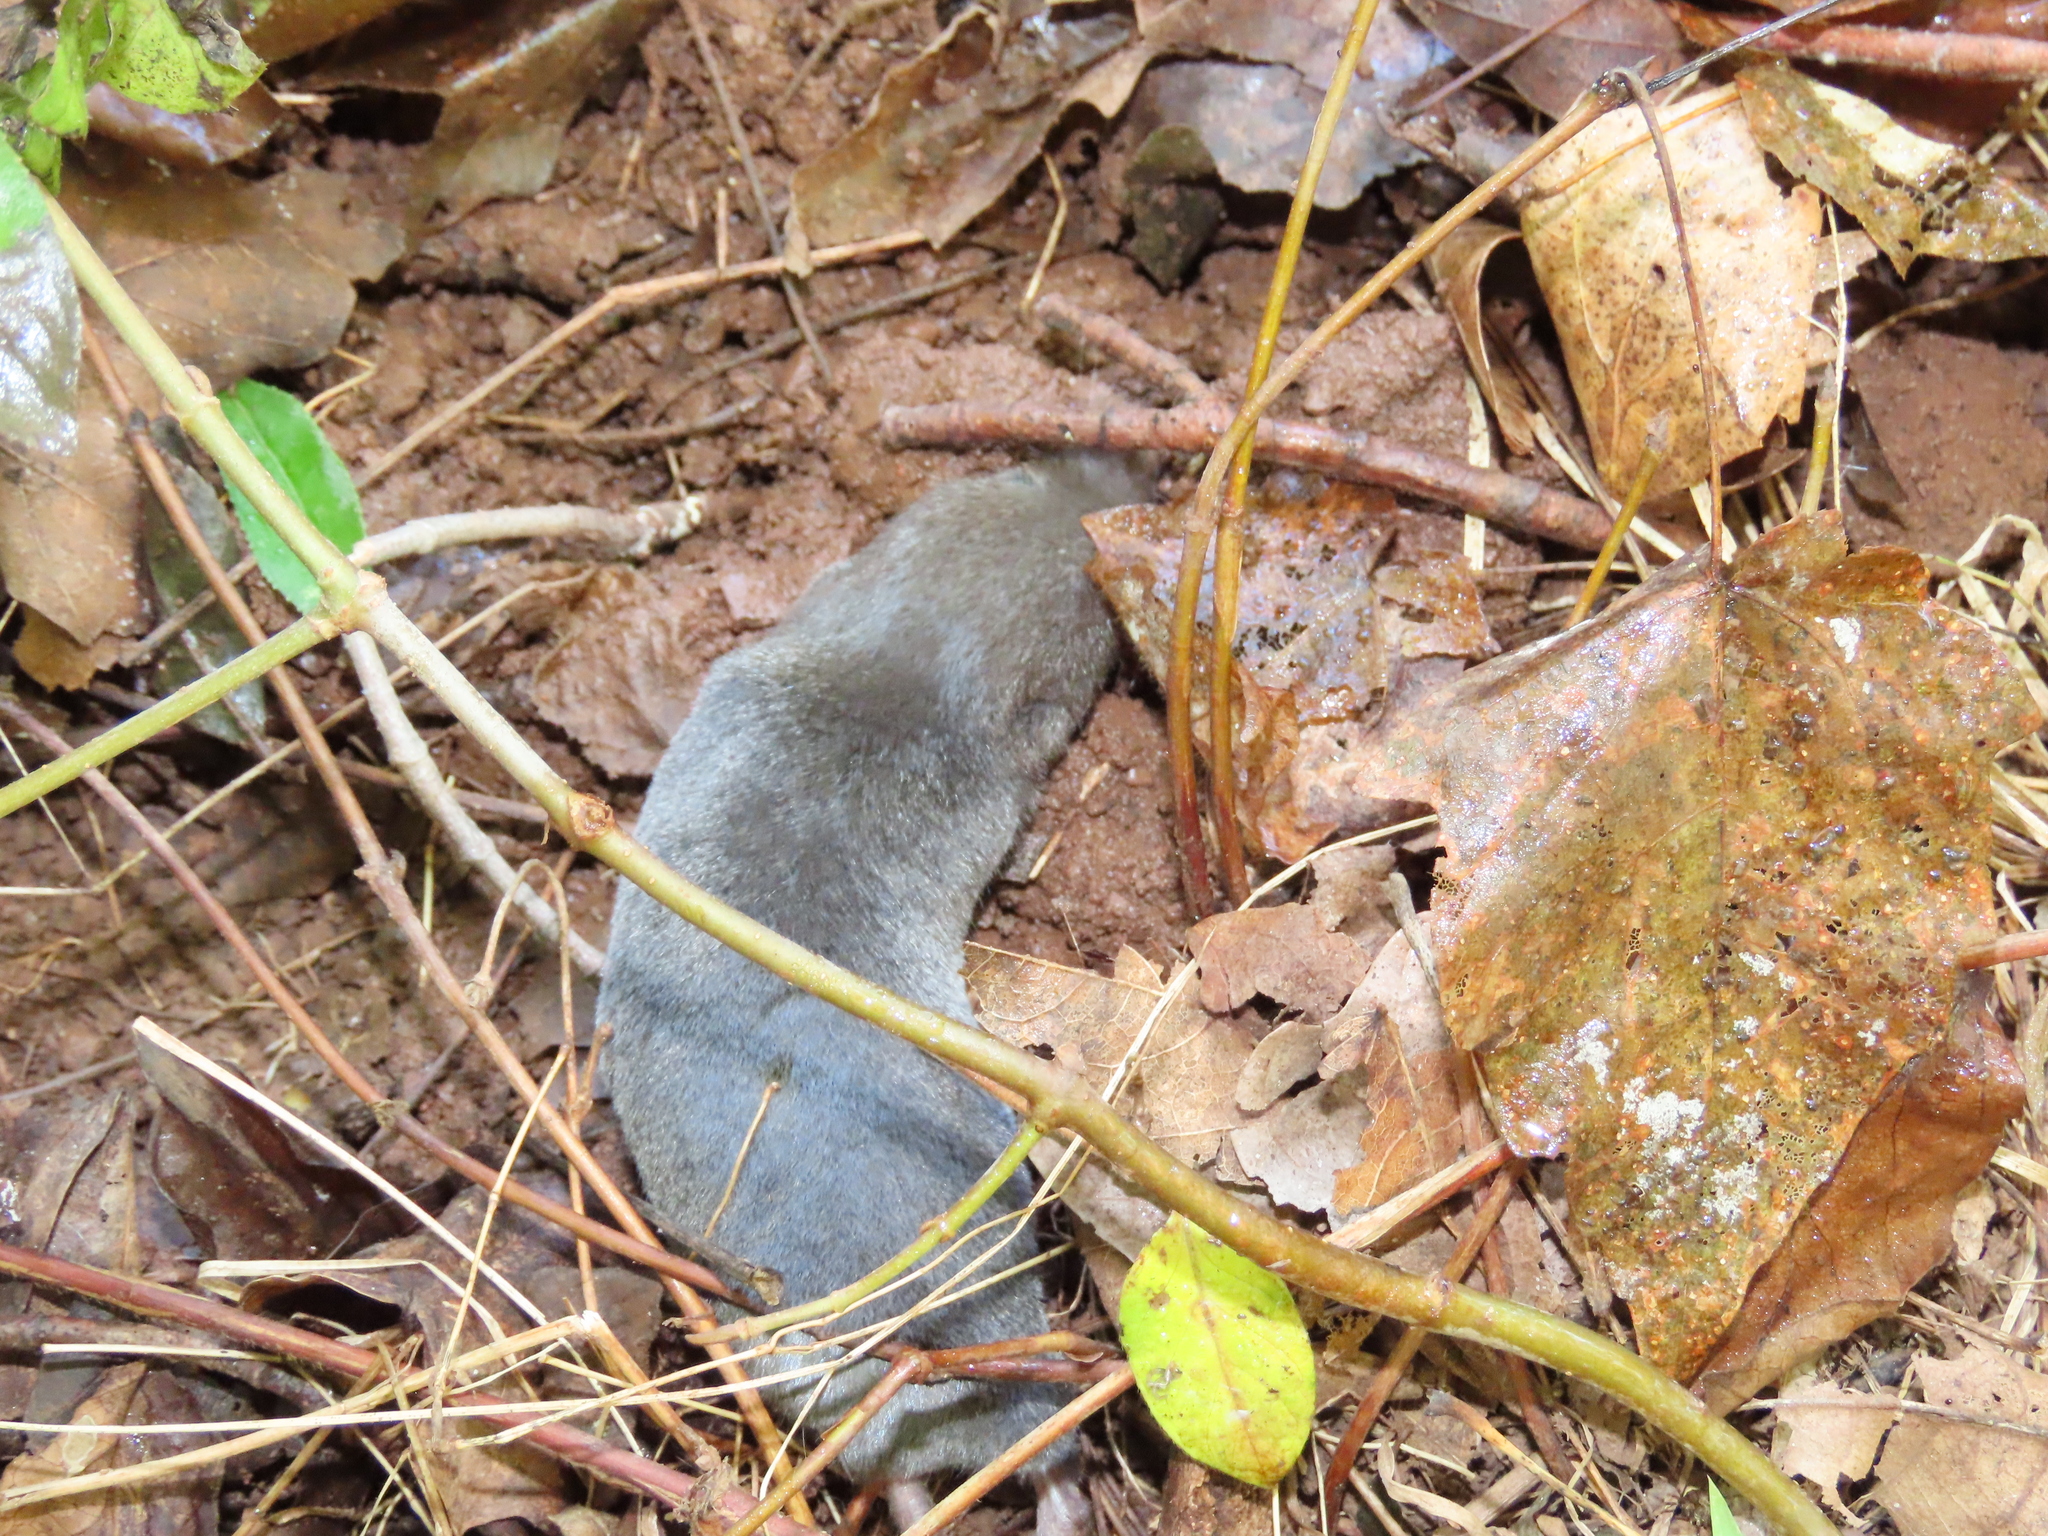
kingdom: Animalia
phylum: Chordata
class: Mammalia
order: Soricomorpha
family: Soricidae
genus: Blarina
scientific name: Blarina brevicauda
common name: Northern short-tailed shrew
